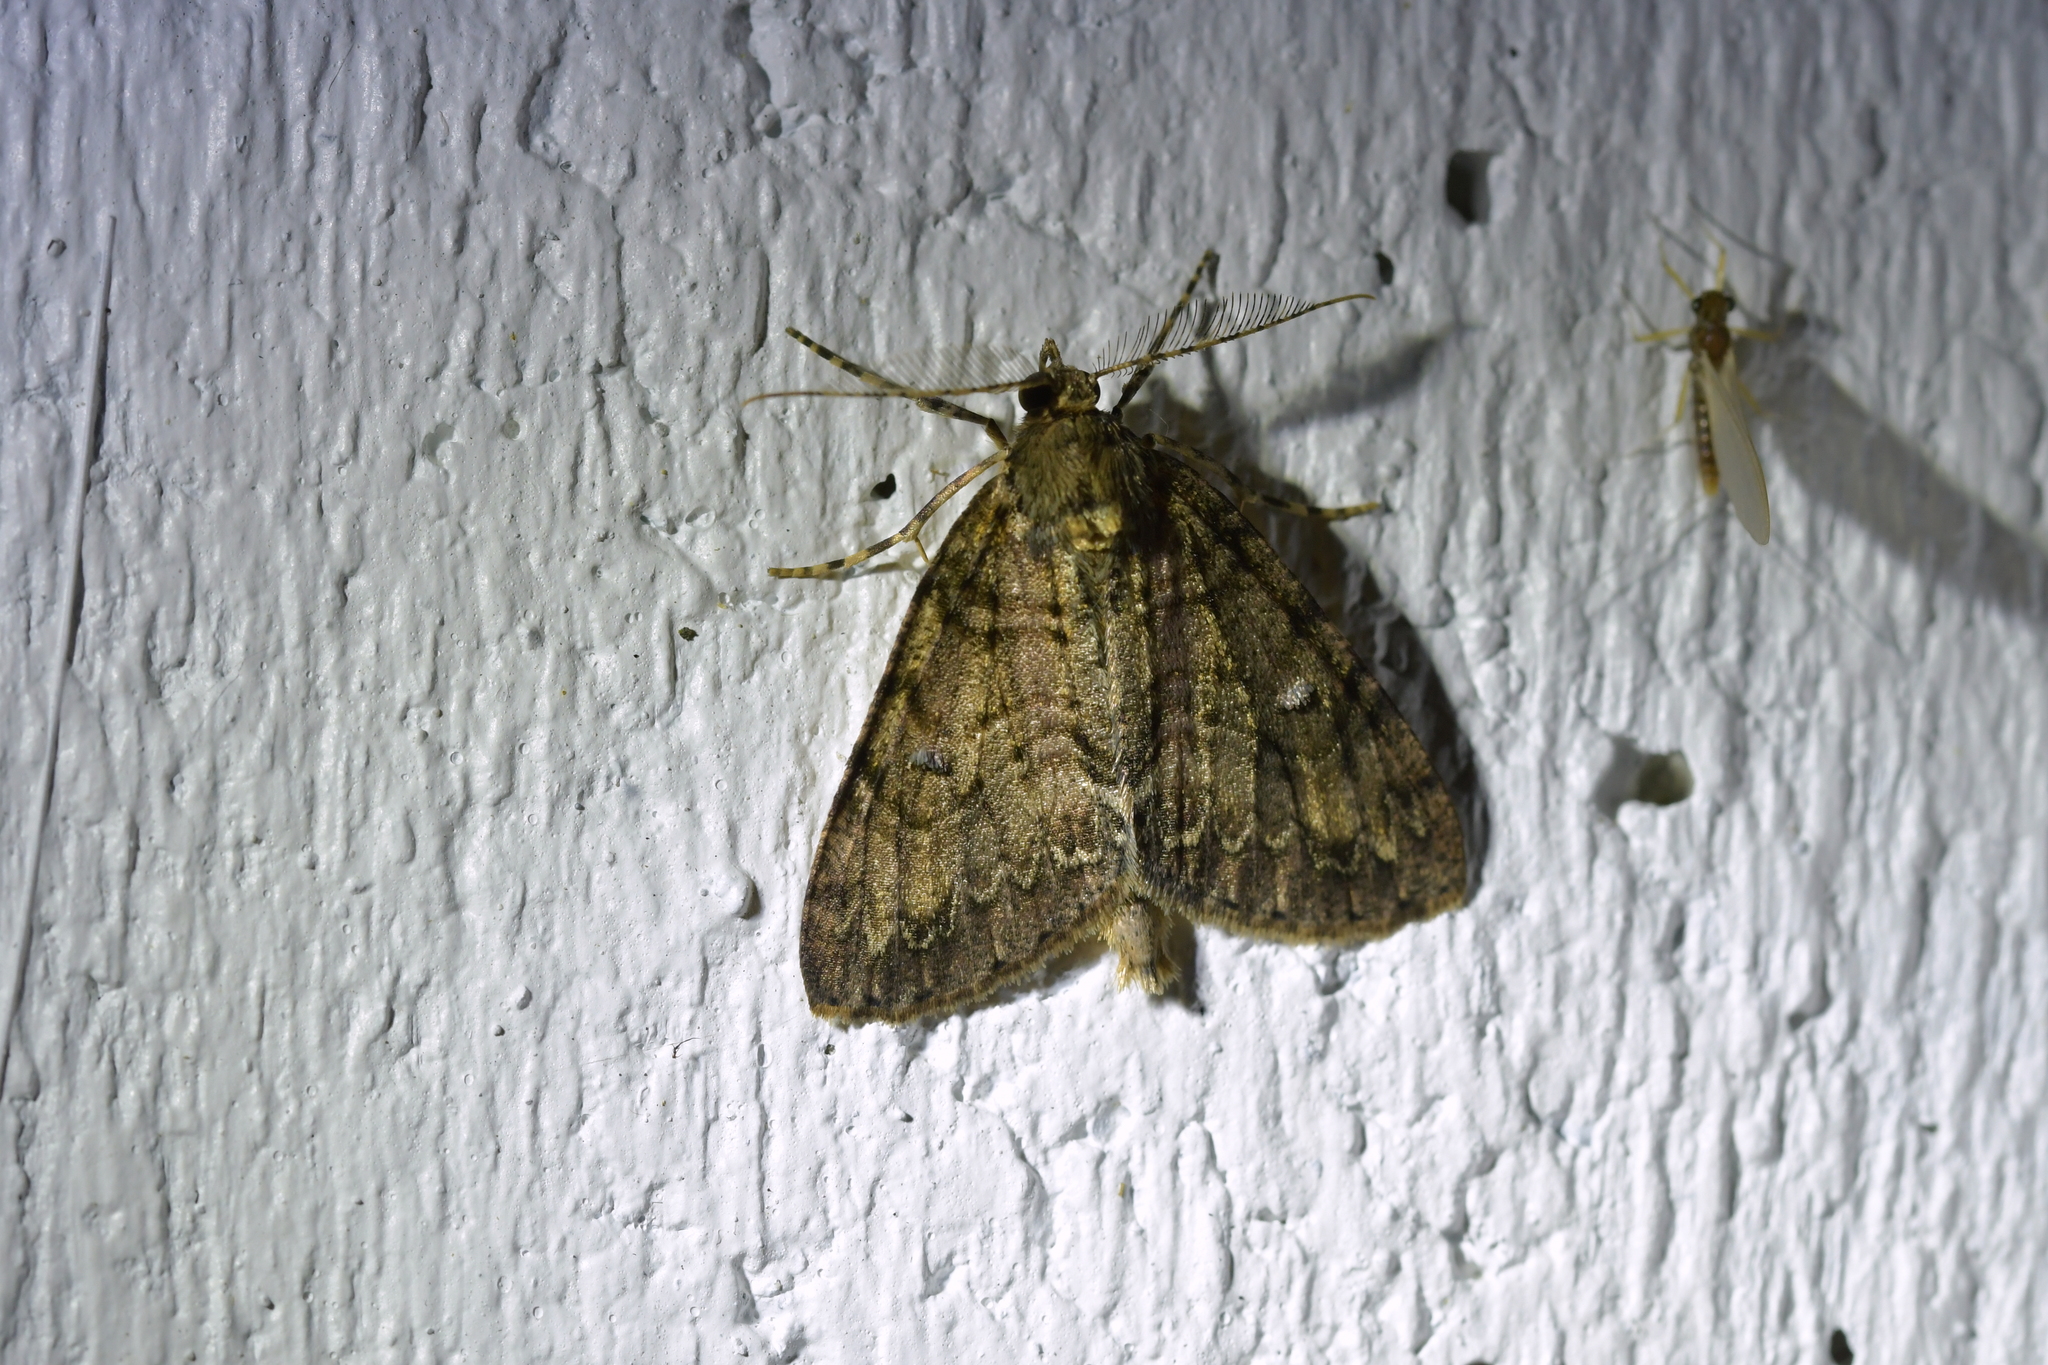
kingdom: Animalia
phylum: Arthropoda
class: Insecta
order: Lepidoptera
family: Geometridae
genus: Pseudocoremia
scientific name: Pseudocoremia suavis
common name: Common forest looper
